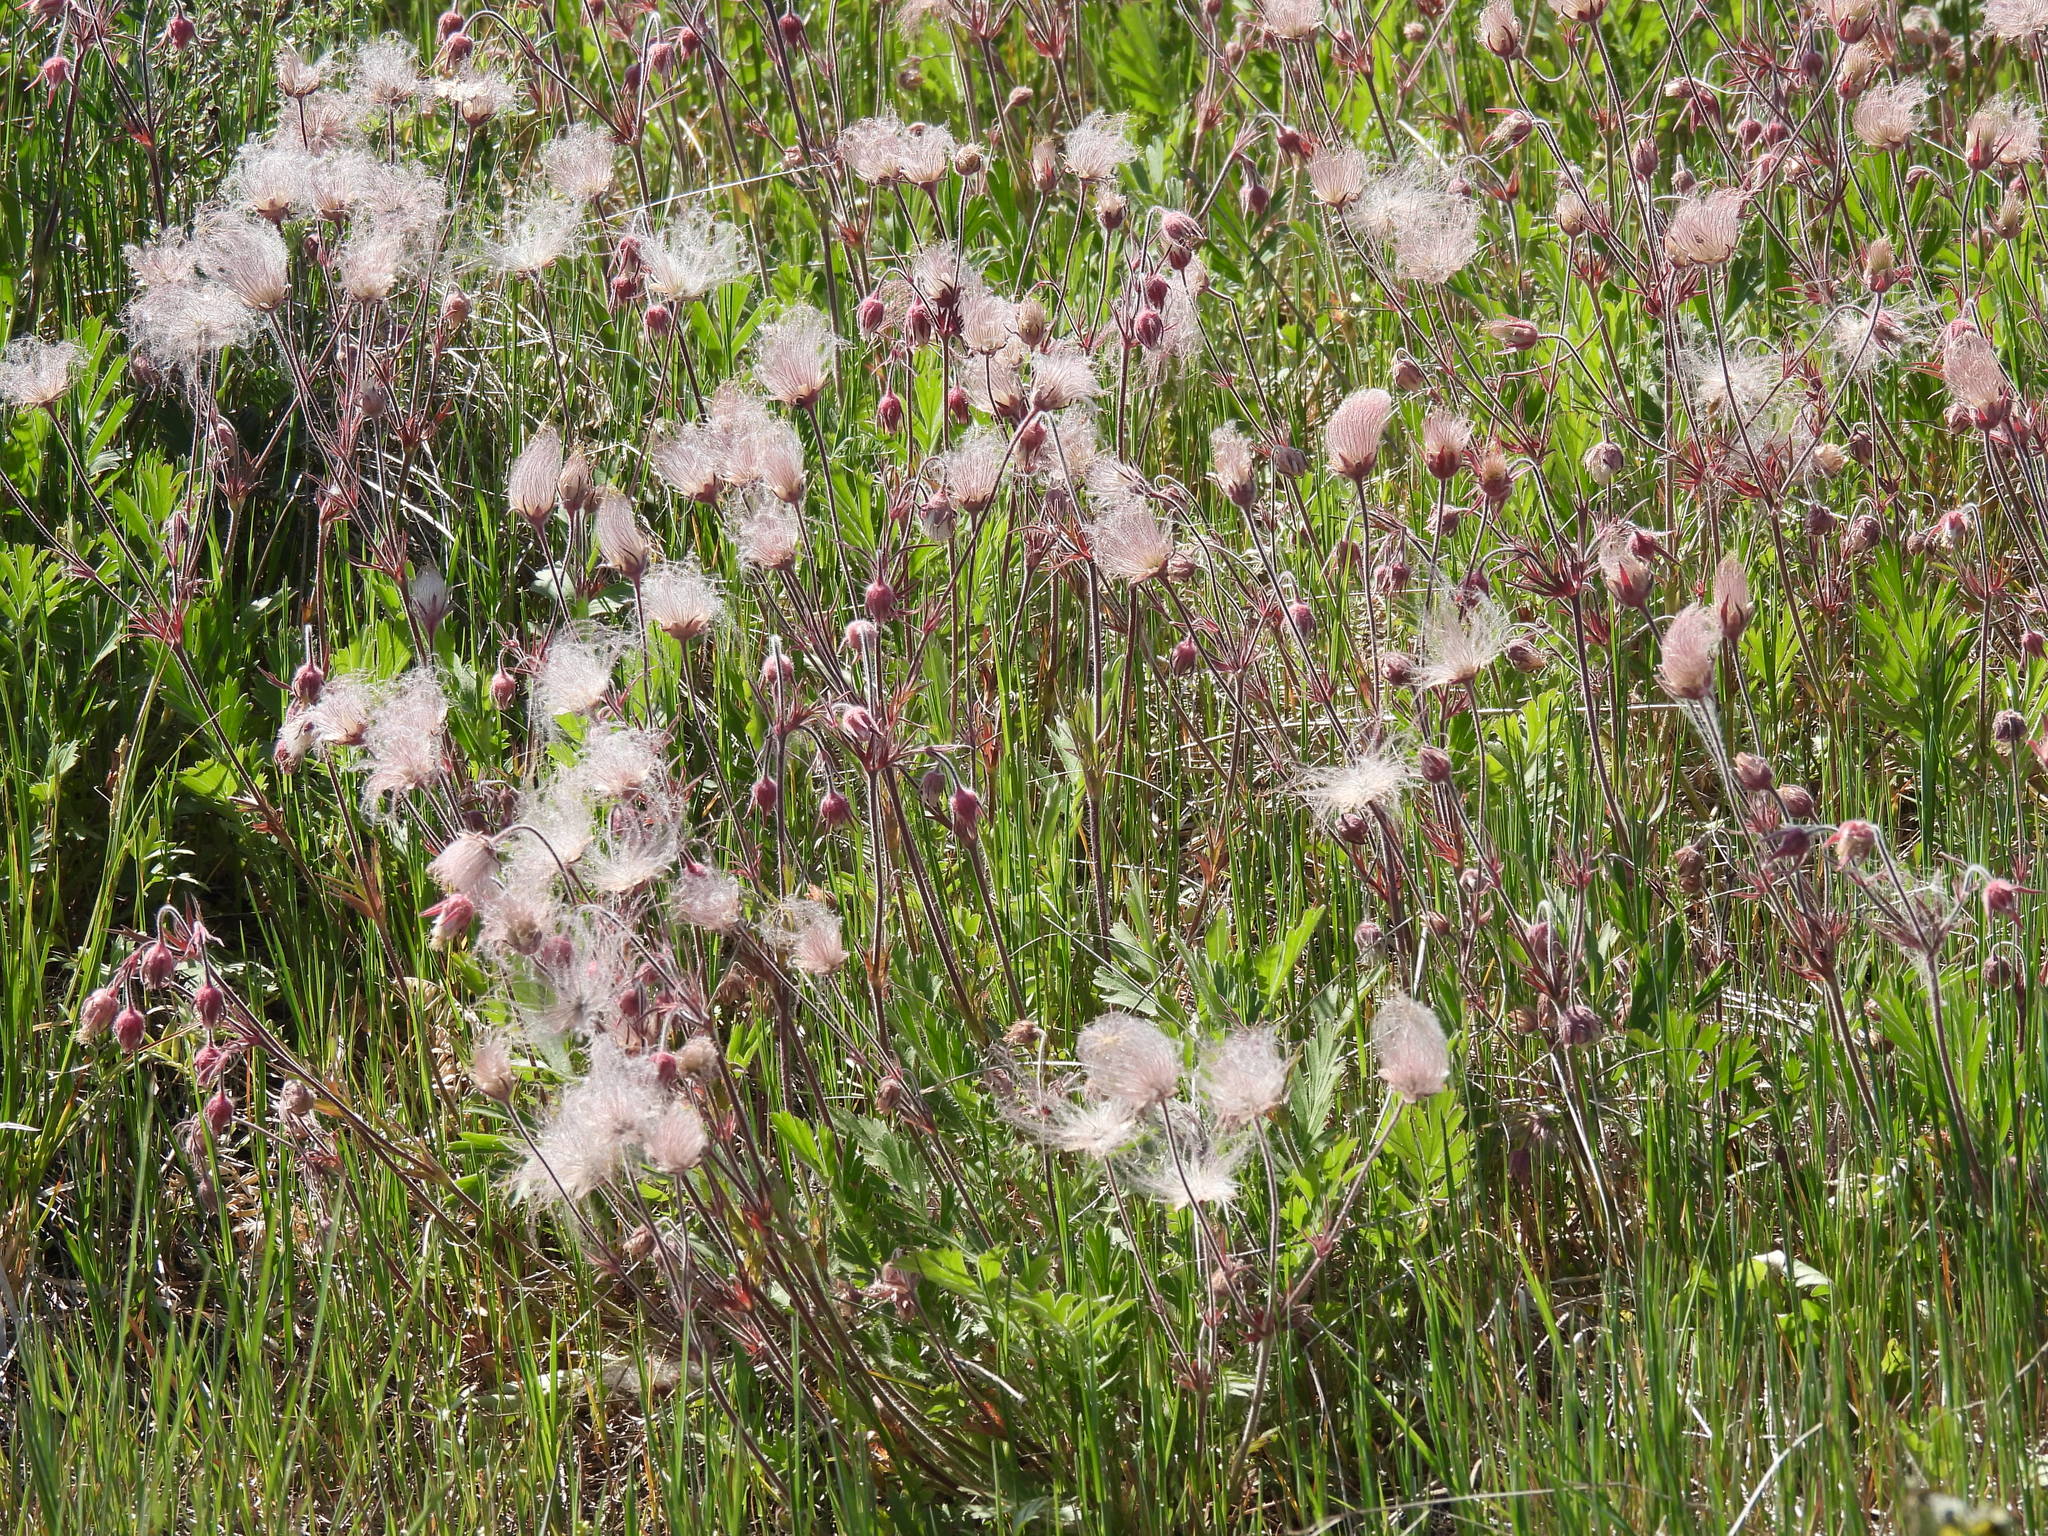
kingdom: Plantae
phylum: Tracheophyta
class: Magnoliopsida
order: Rosales
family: Rosaceae
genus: Geum
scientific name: Geum triflorum
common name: Old man's whiskers
